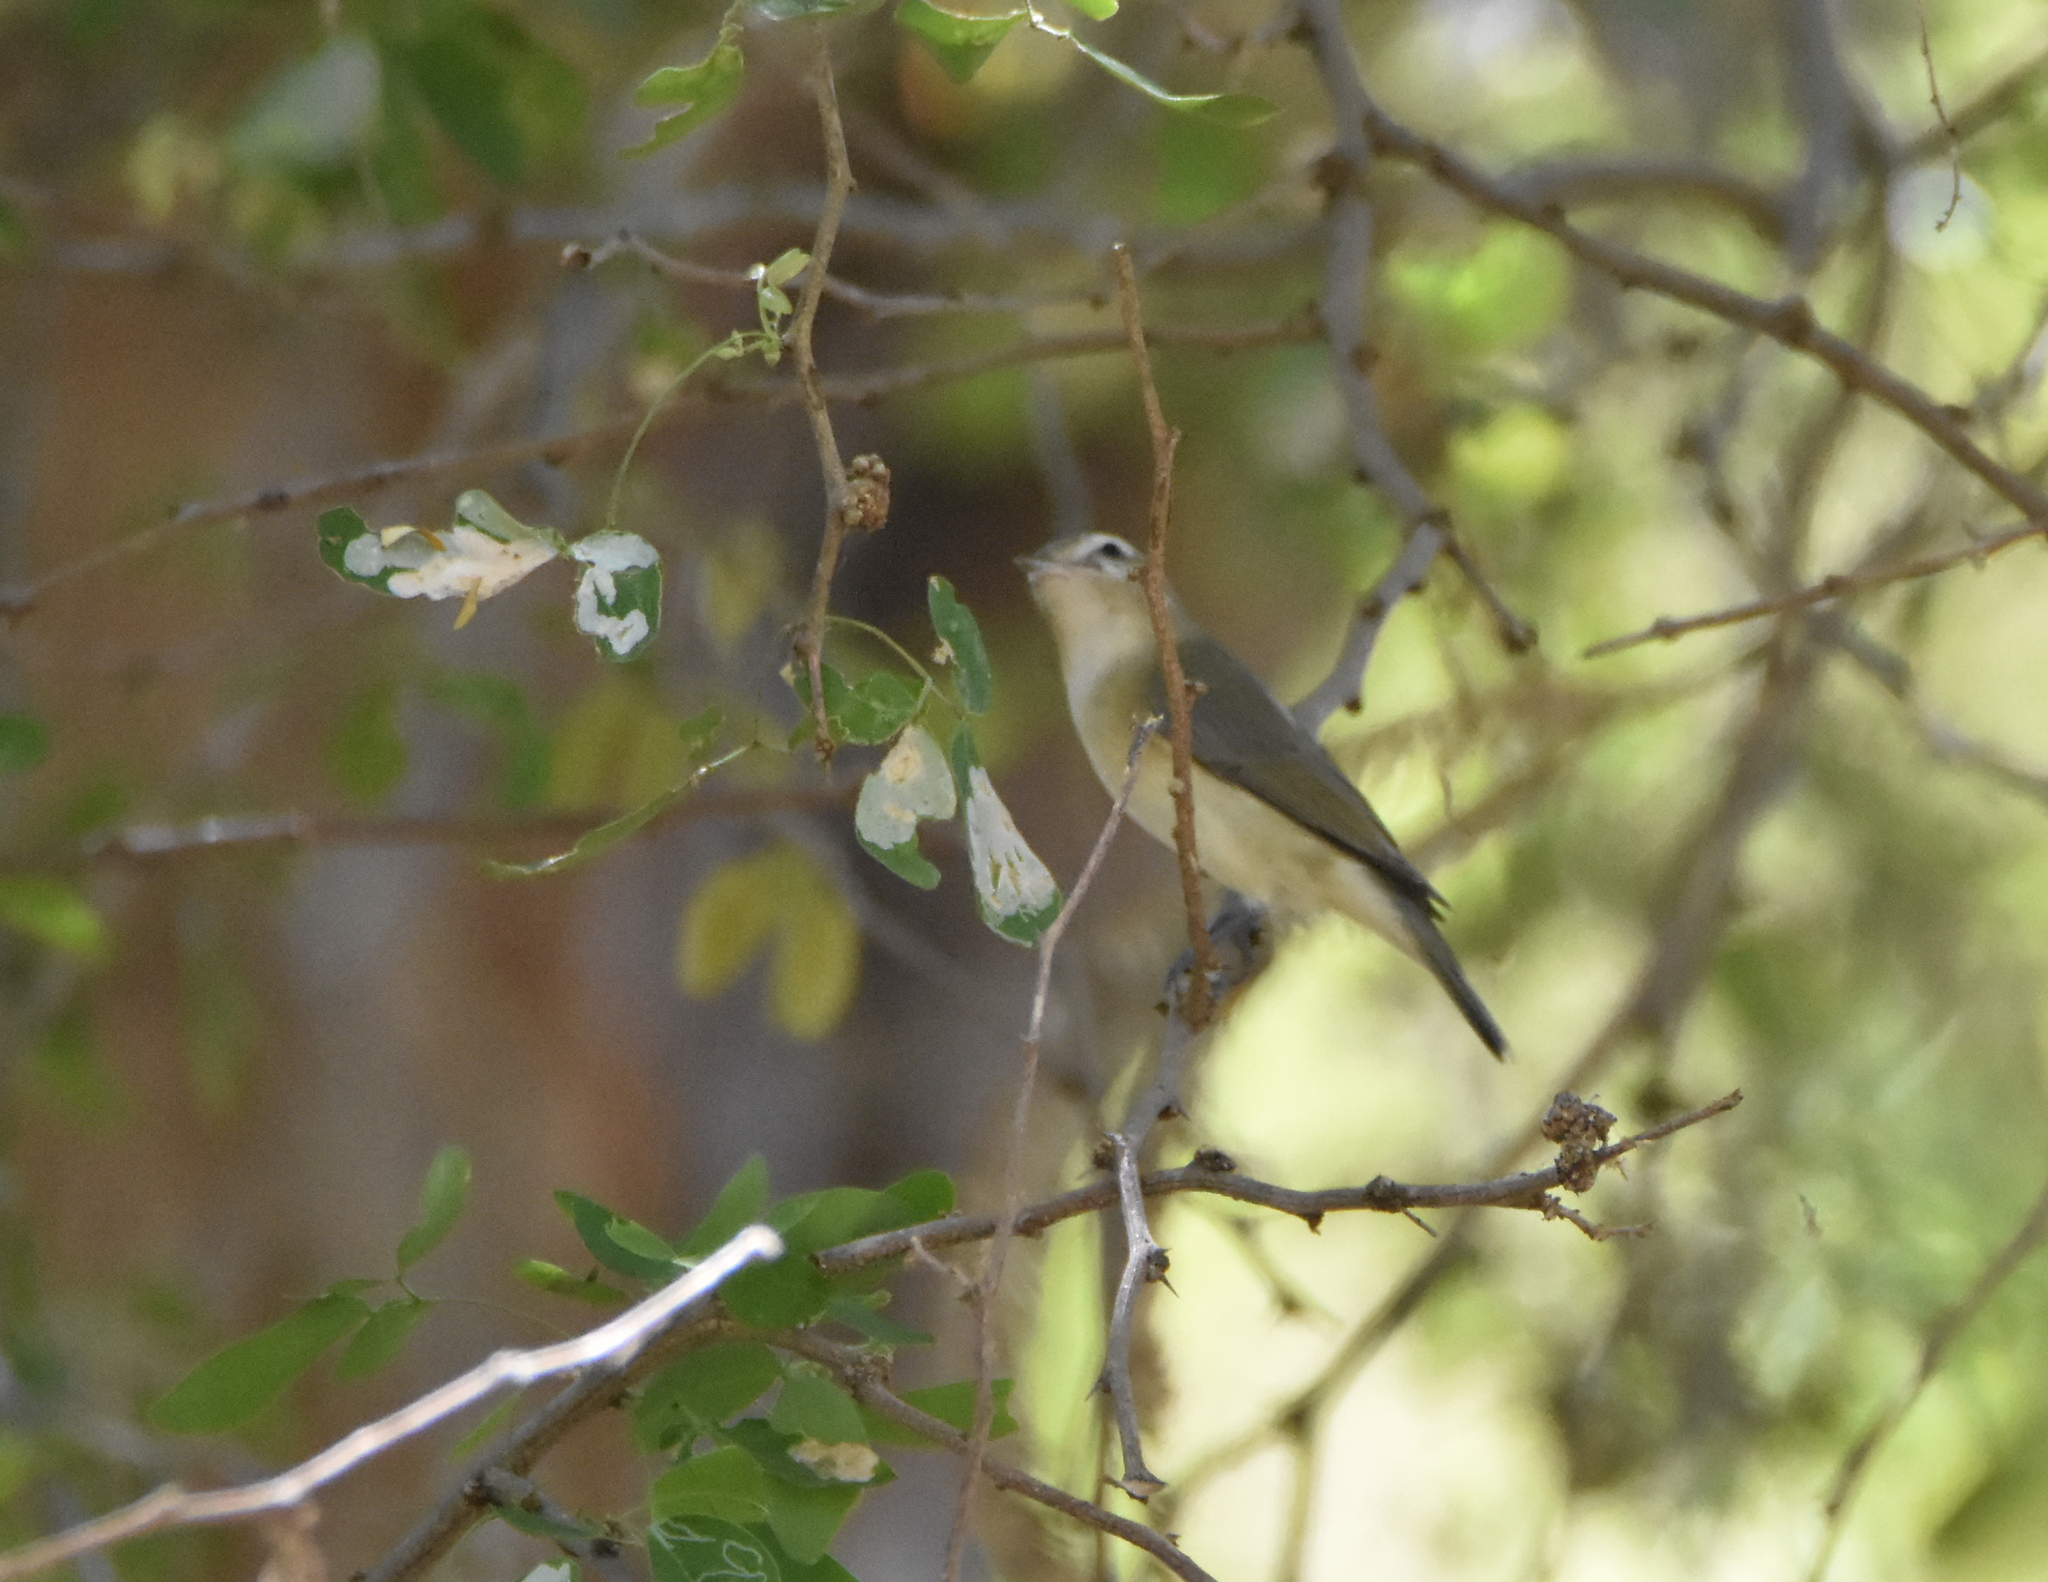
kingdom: Animalia
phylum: Chordata
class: Aves
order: Passeriformes
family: Vireonidae
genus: Vireo
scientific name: Vireo gilvus
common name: Warbling vireo
